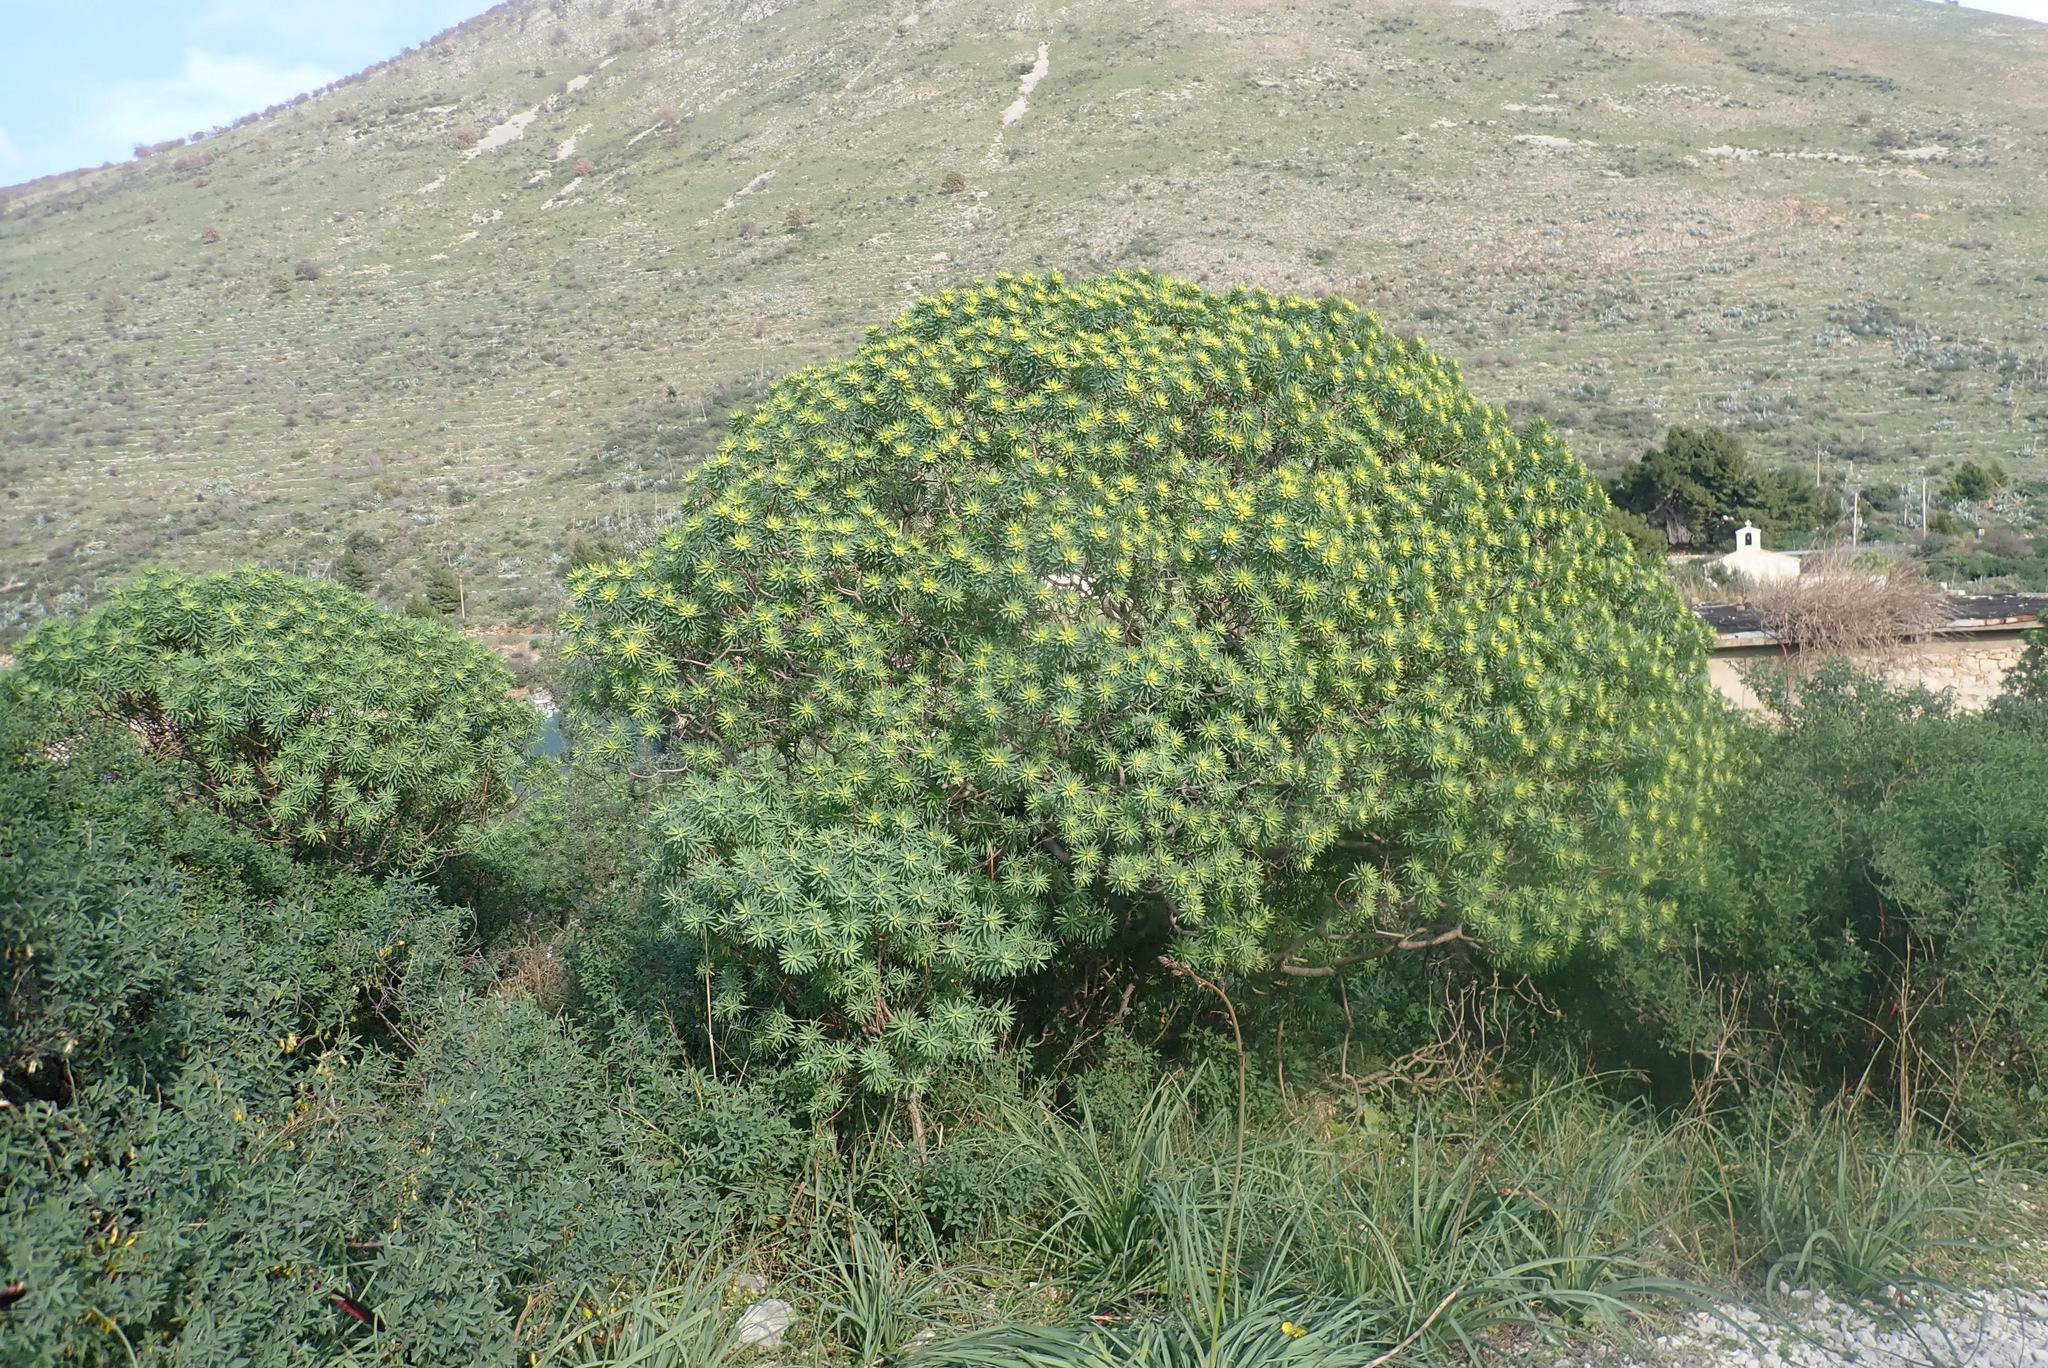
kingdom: Plantae
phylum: Tracheophyta
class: Magnoliopsida
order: Malpighiales
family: Euphorbiaceae
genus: Euphorbia
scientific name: Euphorbia dendroides
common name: Tree spurge
